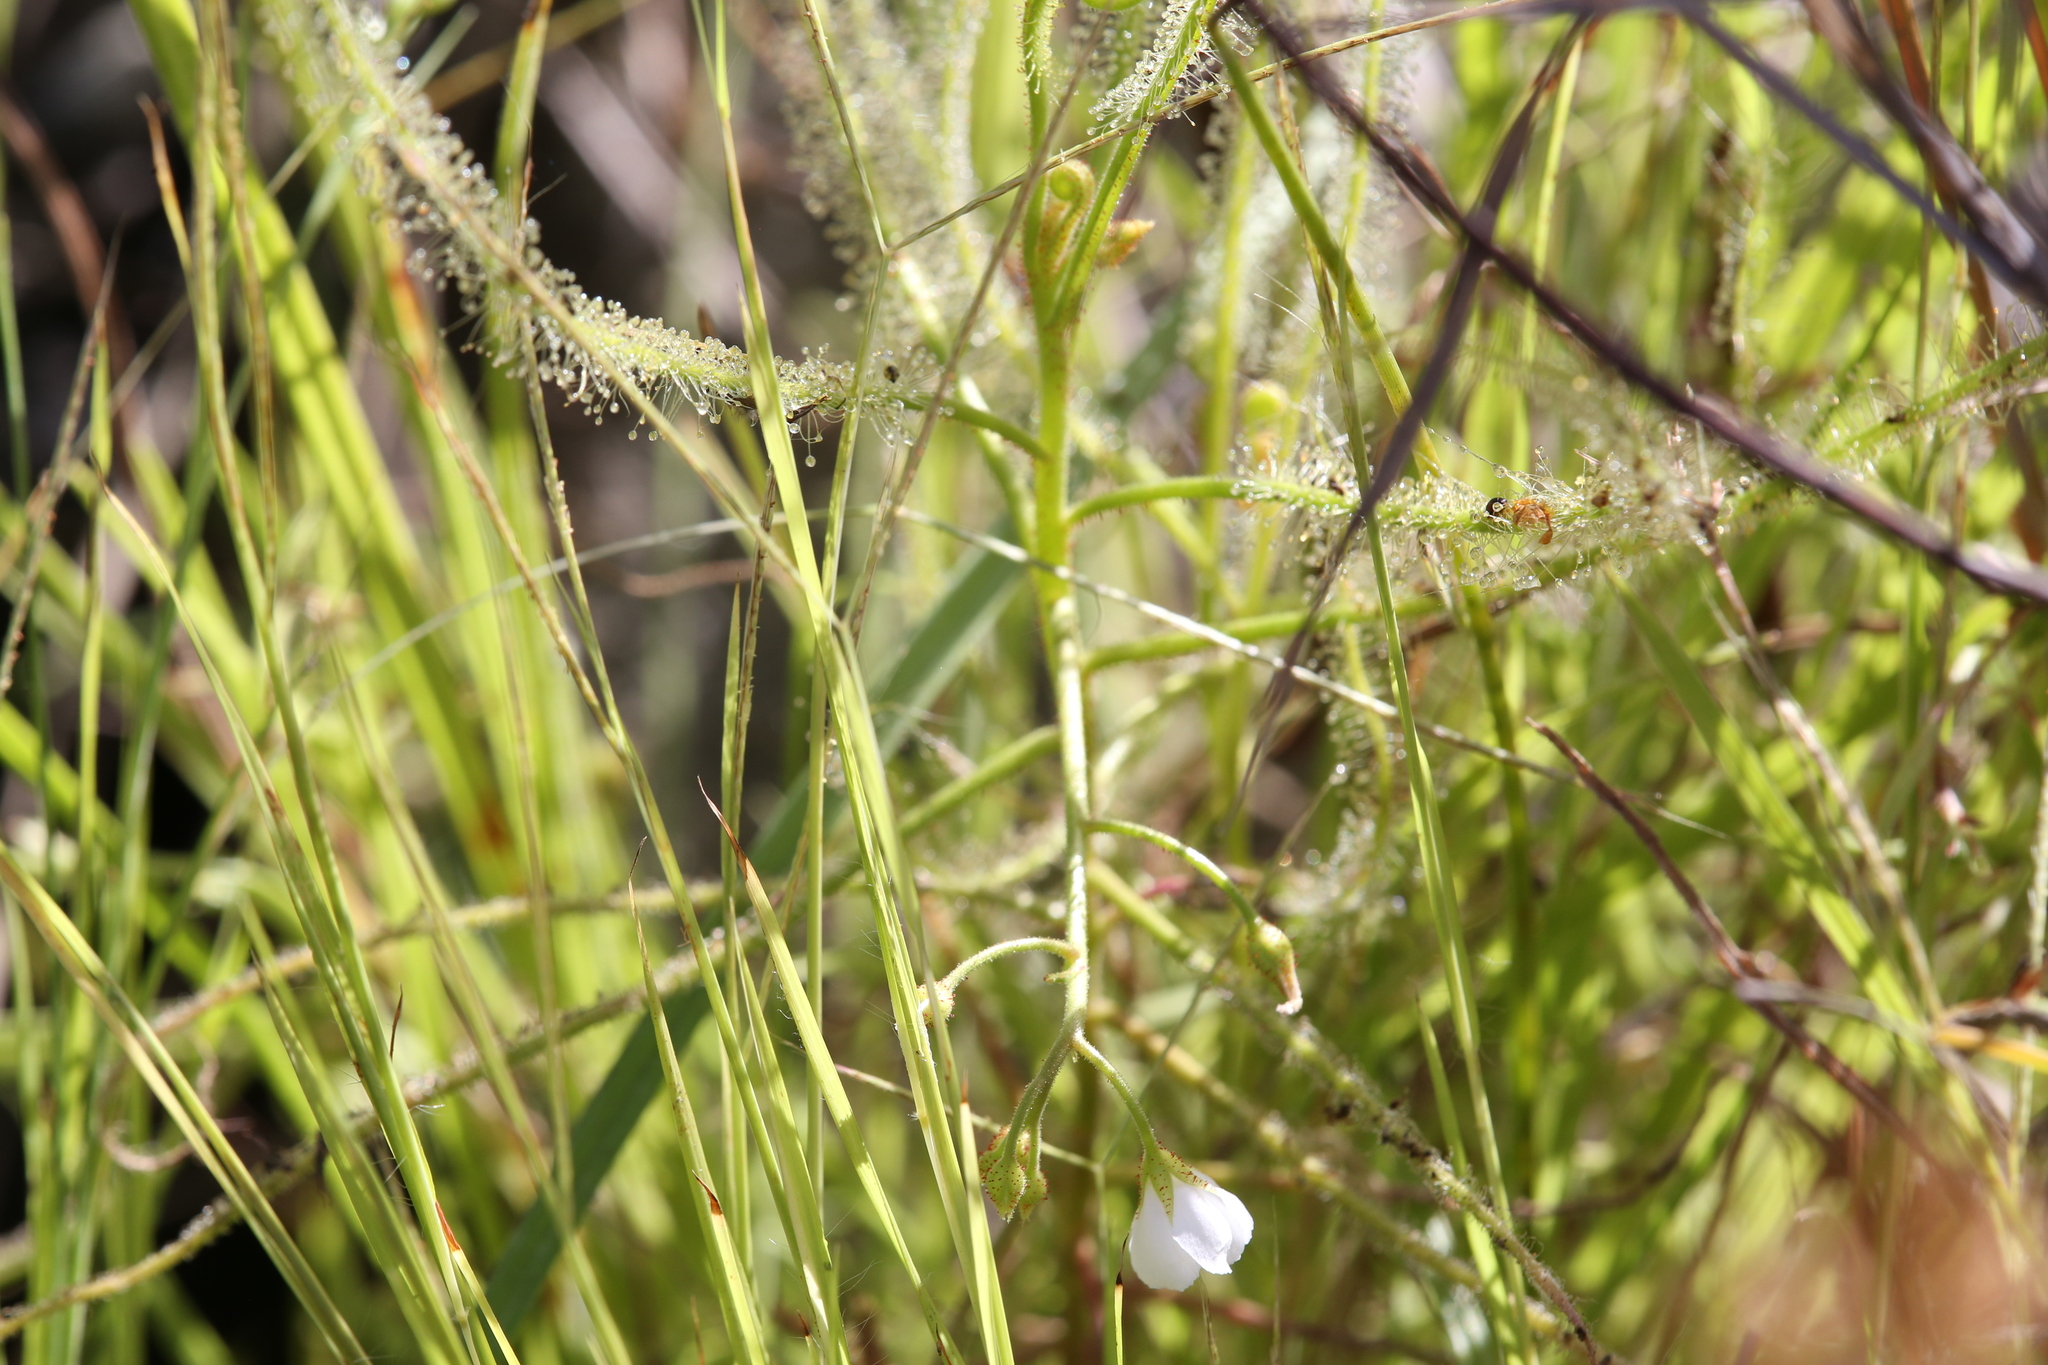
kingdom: Plantae
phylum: Tracheophyta
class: Magnoliopsida
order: Caryophyllales
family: Droseraceae
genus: Drosera
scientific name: Drosera indica
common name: Indian sundew
